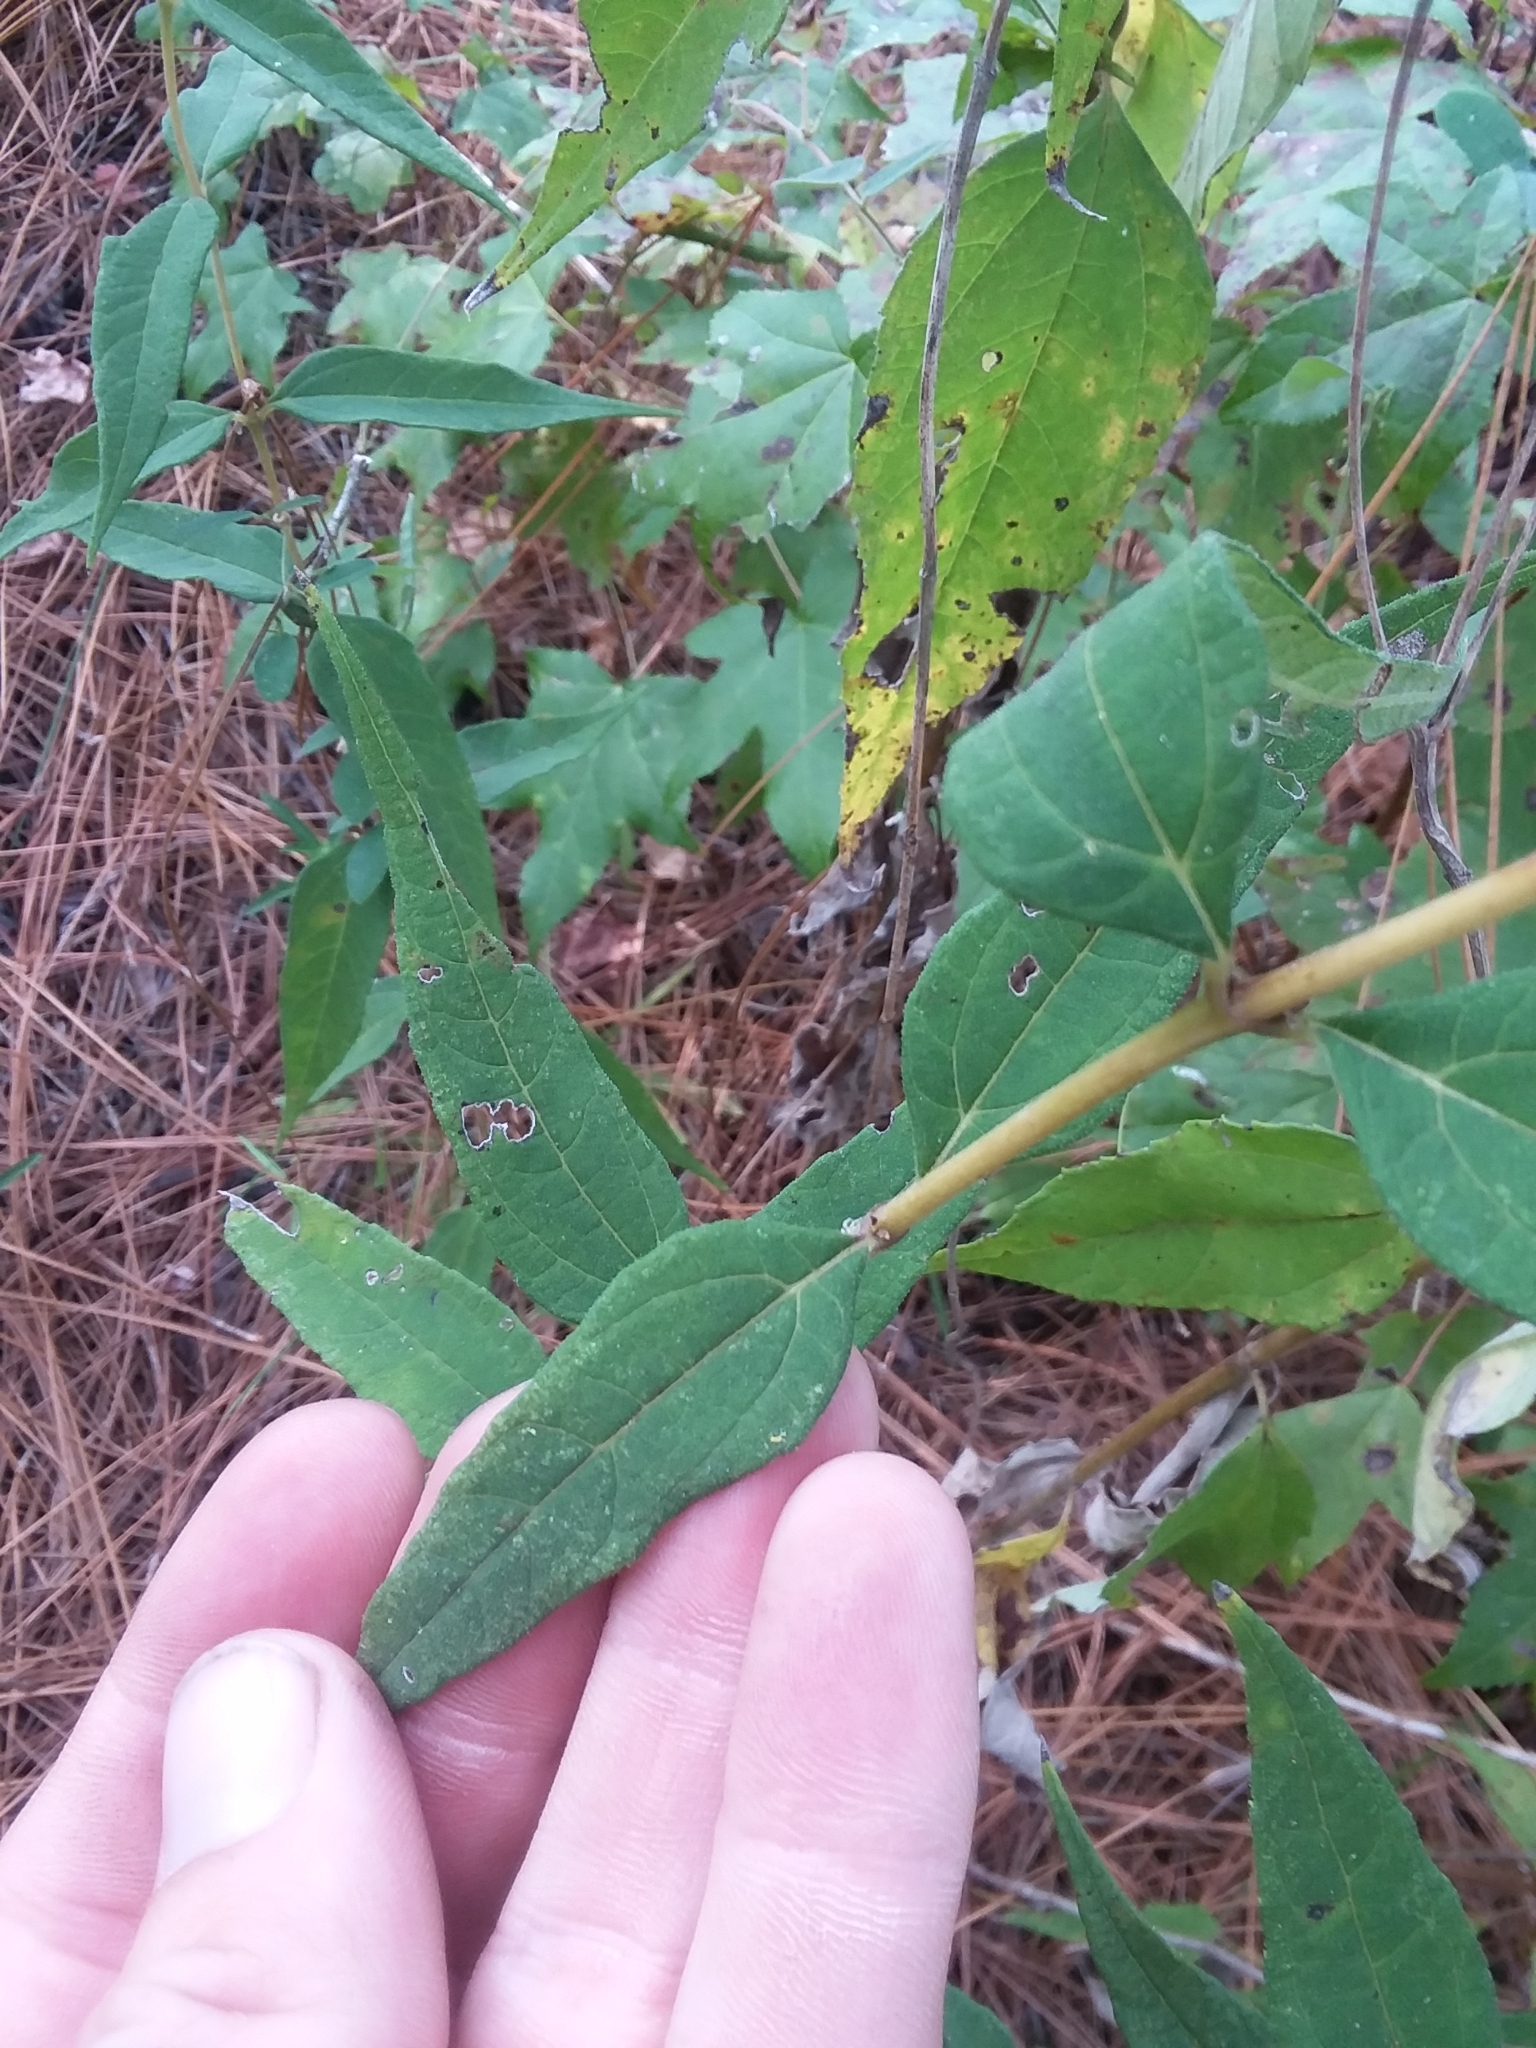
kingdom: Plantae
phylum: Tracheophyta
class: Magnoliopsida
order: Asterales
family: Asteraceae
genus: Helianthus
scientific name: Helianthus microcephalus
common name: Woodland sunflower
